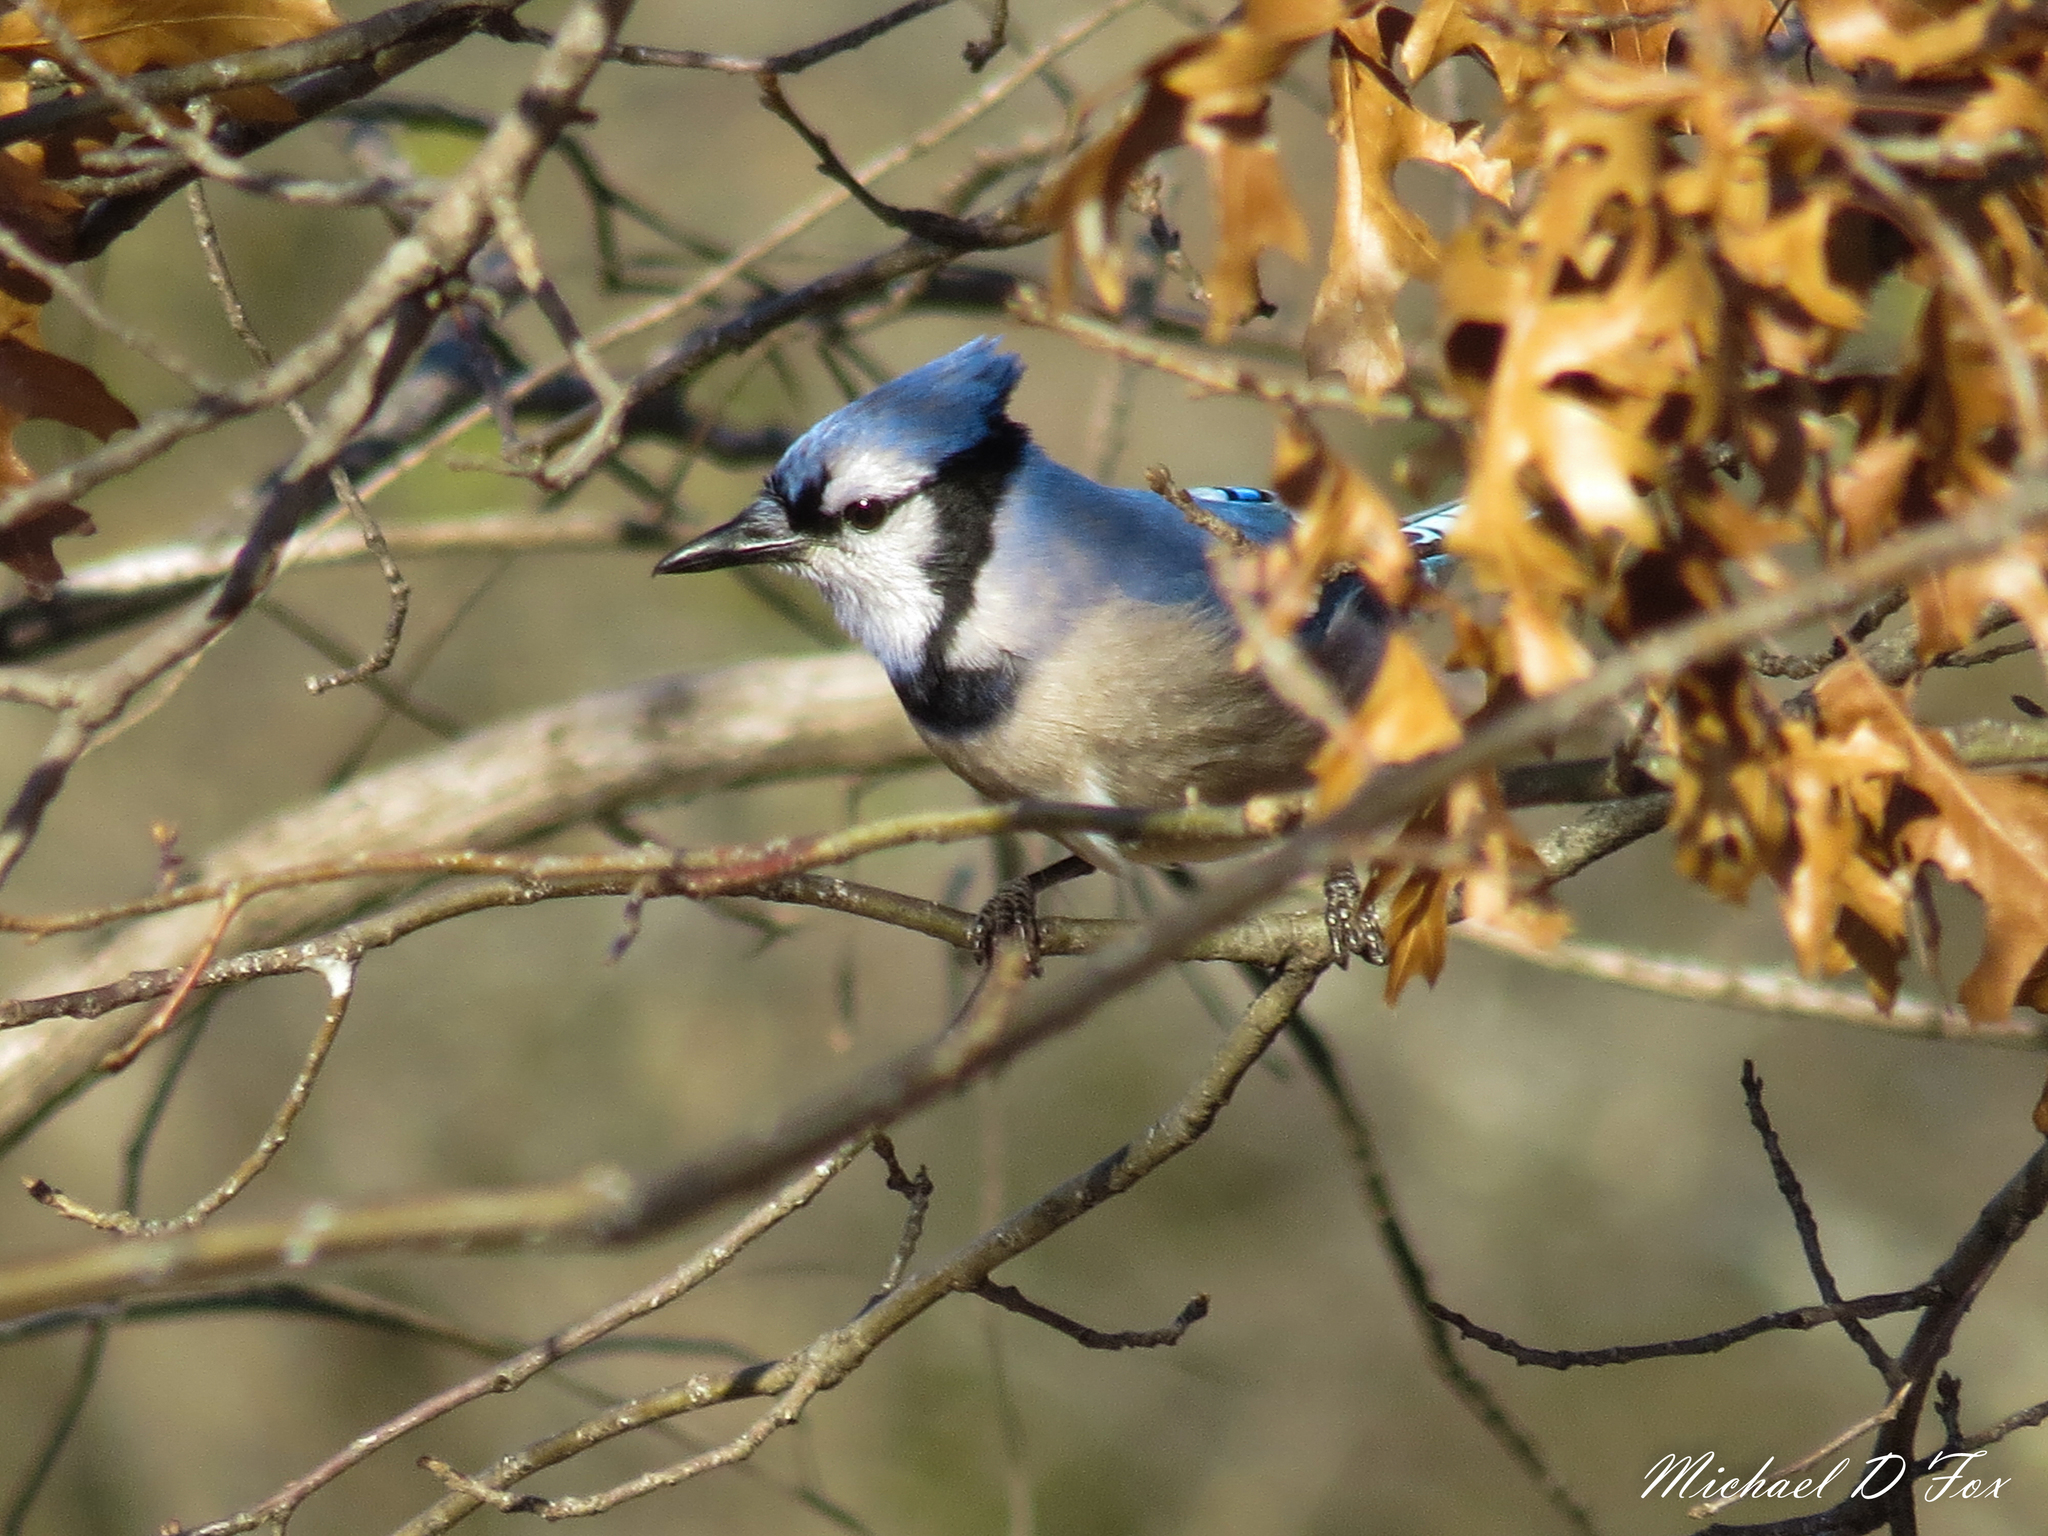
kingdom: Animalia
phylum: Chordata
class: Aves
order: Passeriformes
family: Corvidae
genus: Cyanocitta
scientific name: Cyanocitta cristata
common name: Blue jay
